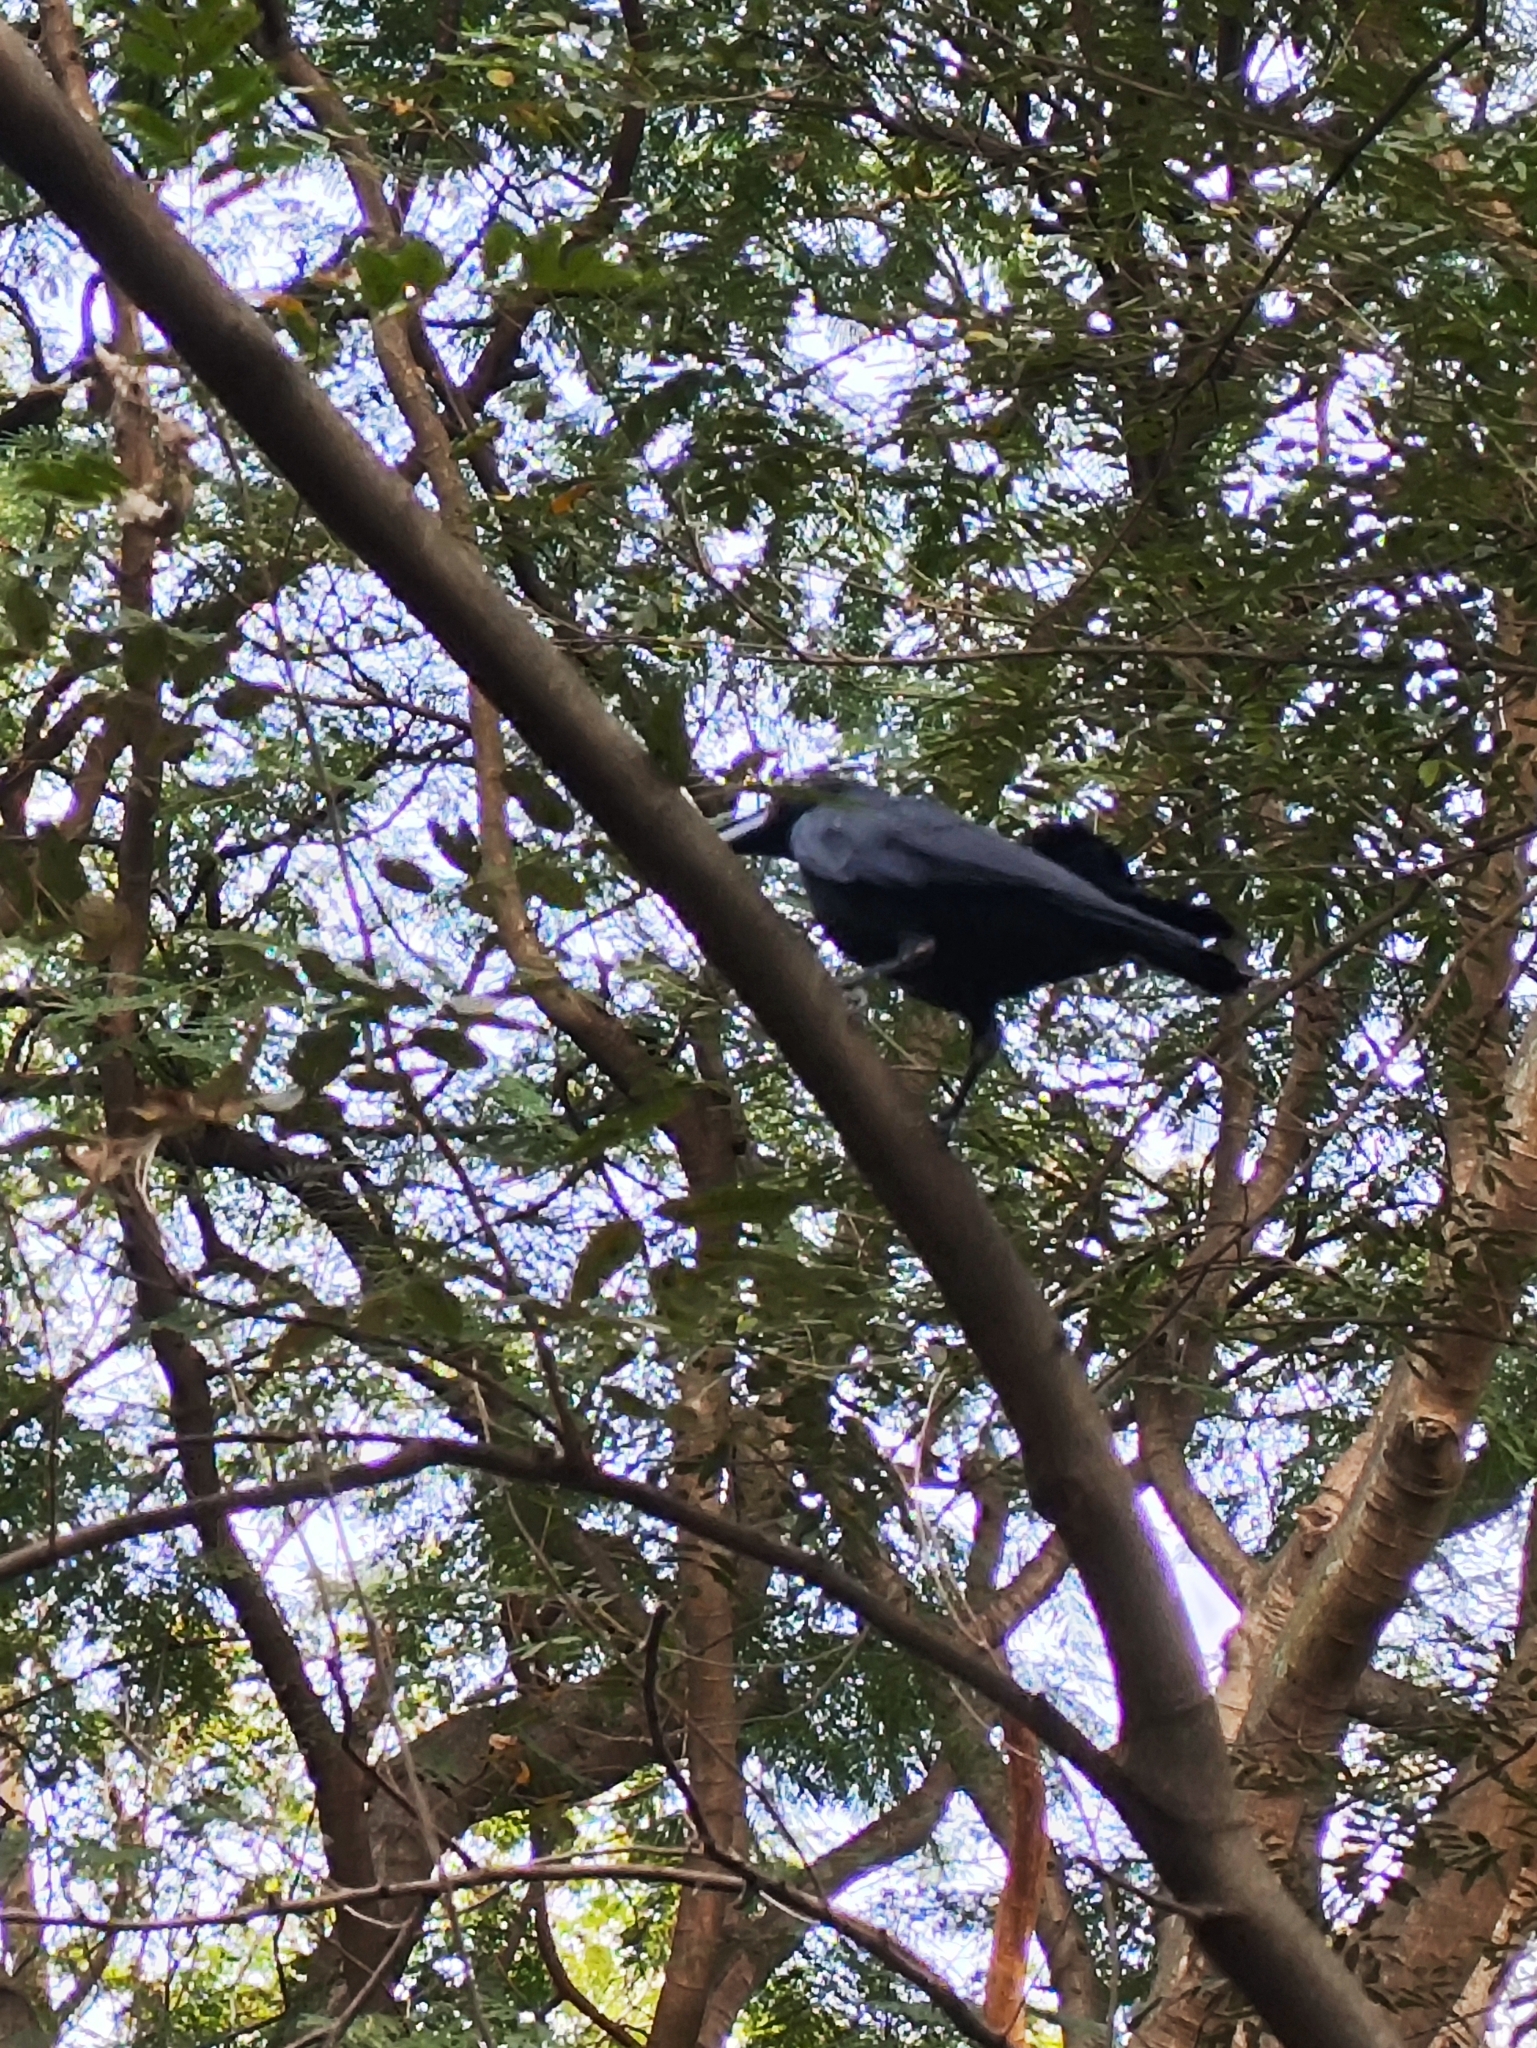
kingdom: Animalia
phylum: Chordata
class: Aves
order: Passeriformes
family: Corvidae
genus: Corvus
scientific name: Corvus macrorhynchos
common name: Large-billed crow
